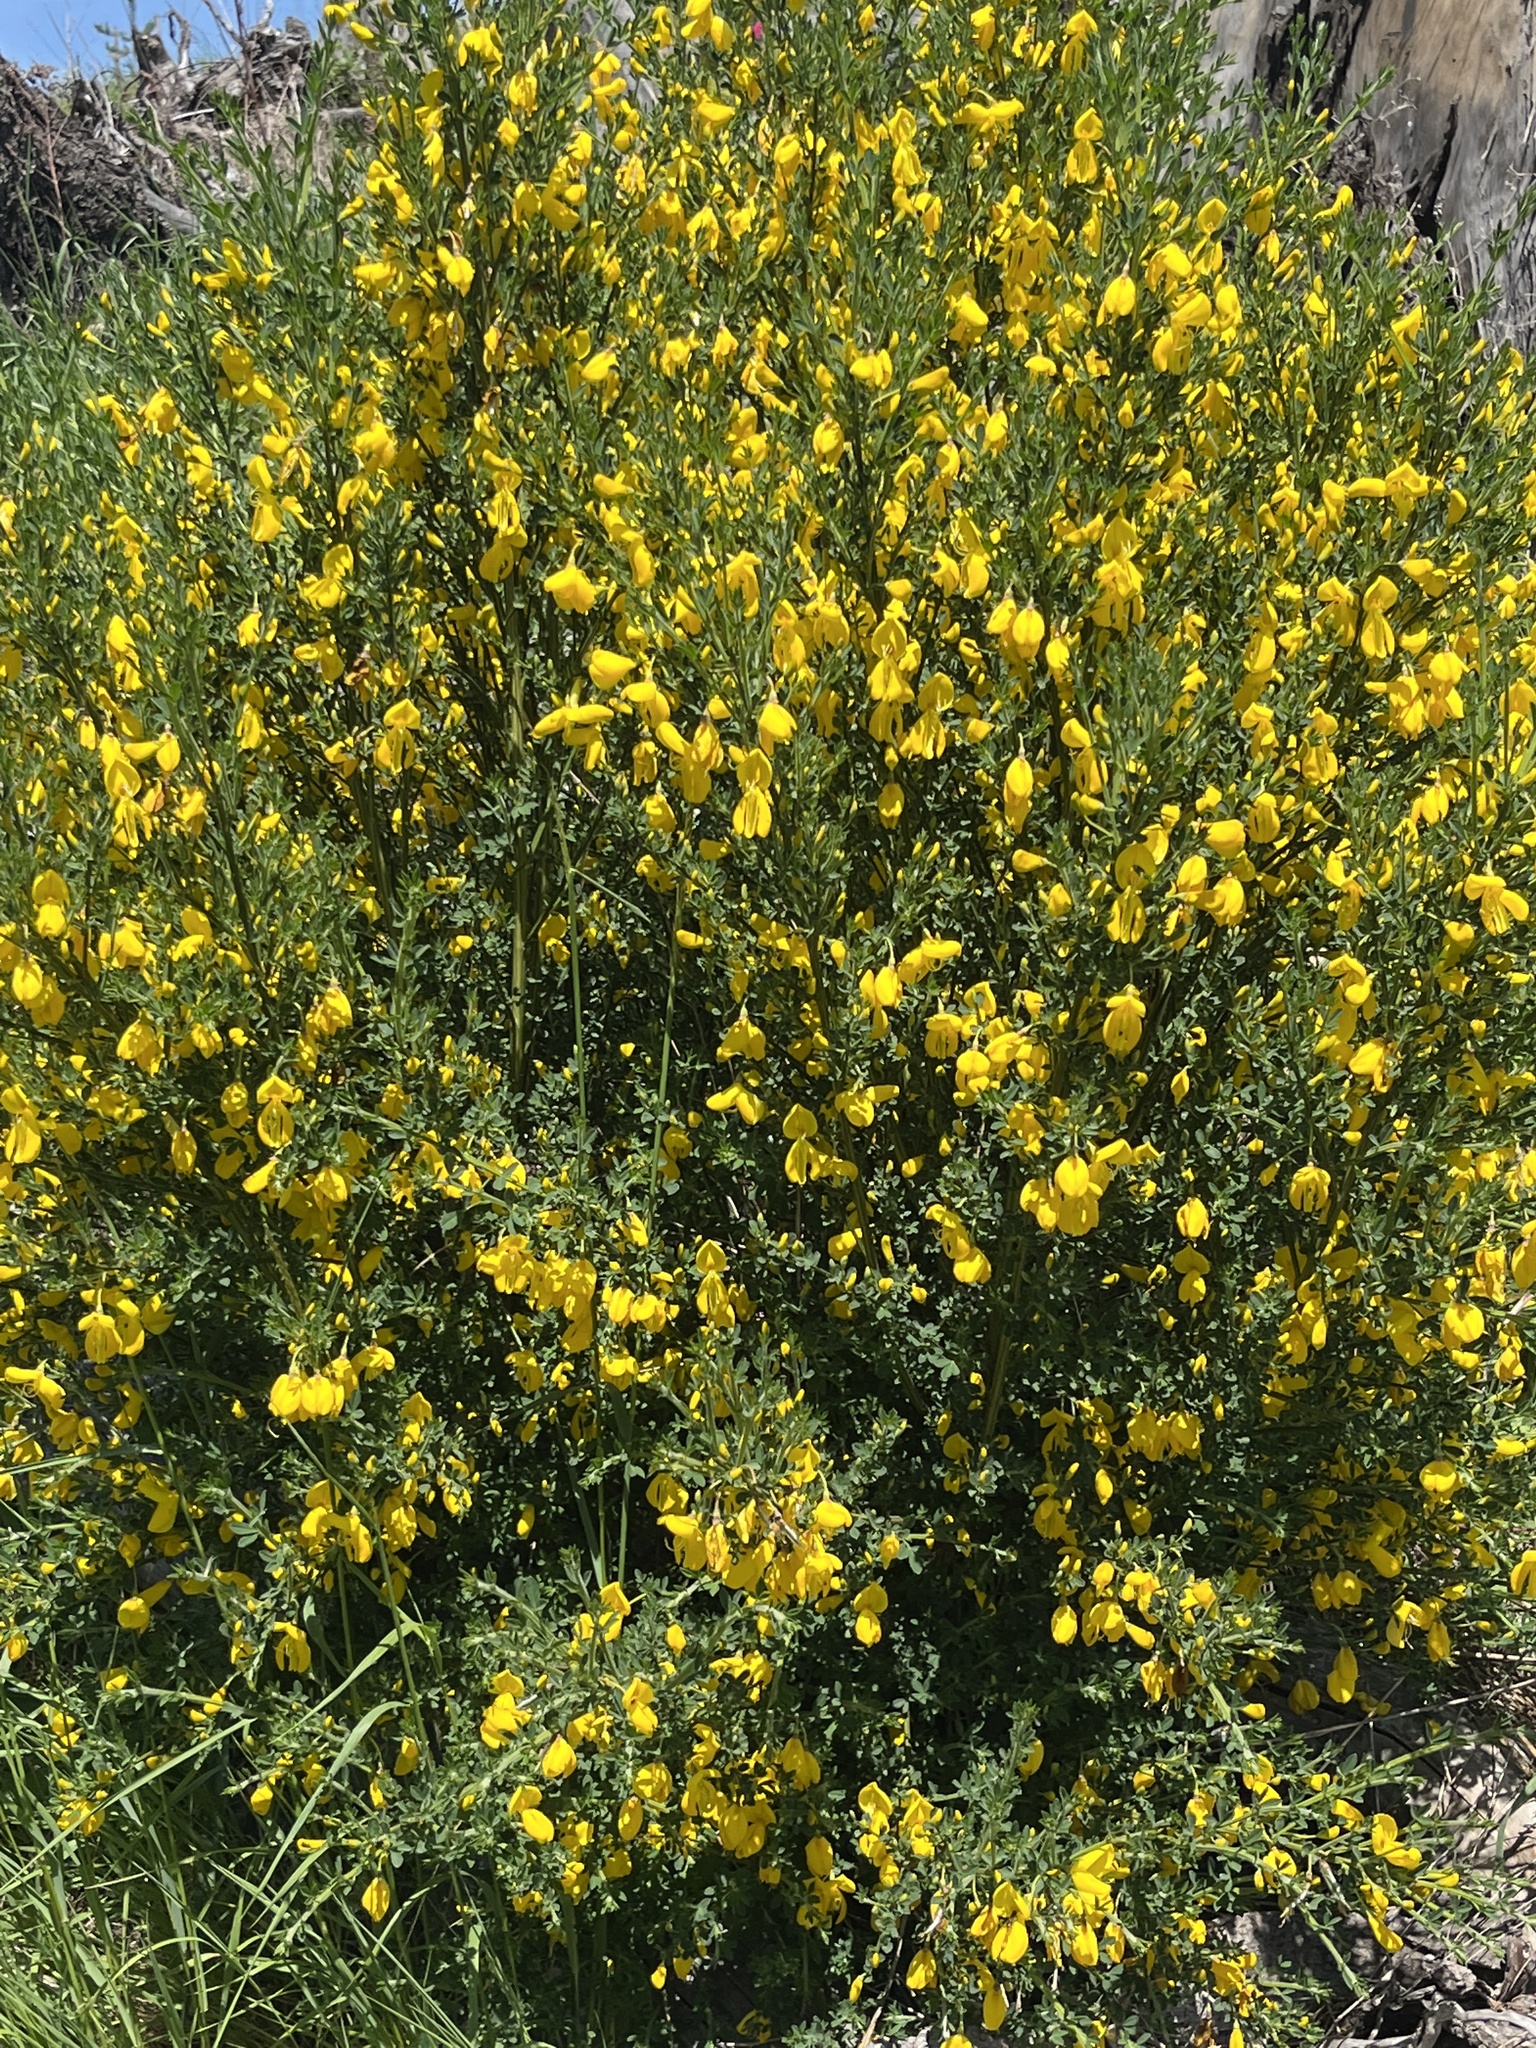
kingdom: Plantae
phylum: Tracheophyta
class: Magnoliopsida
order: Fabales
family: Fabaceae
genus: Cytisus
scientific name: Cytisus scoparius
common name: Scotch broom
